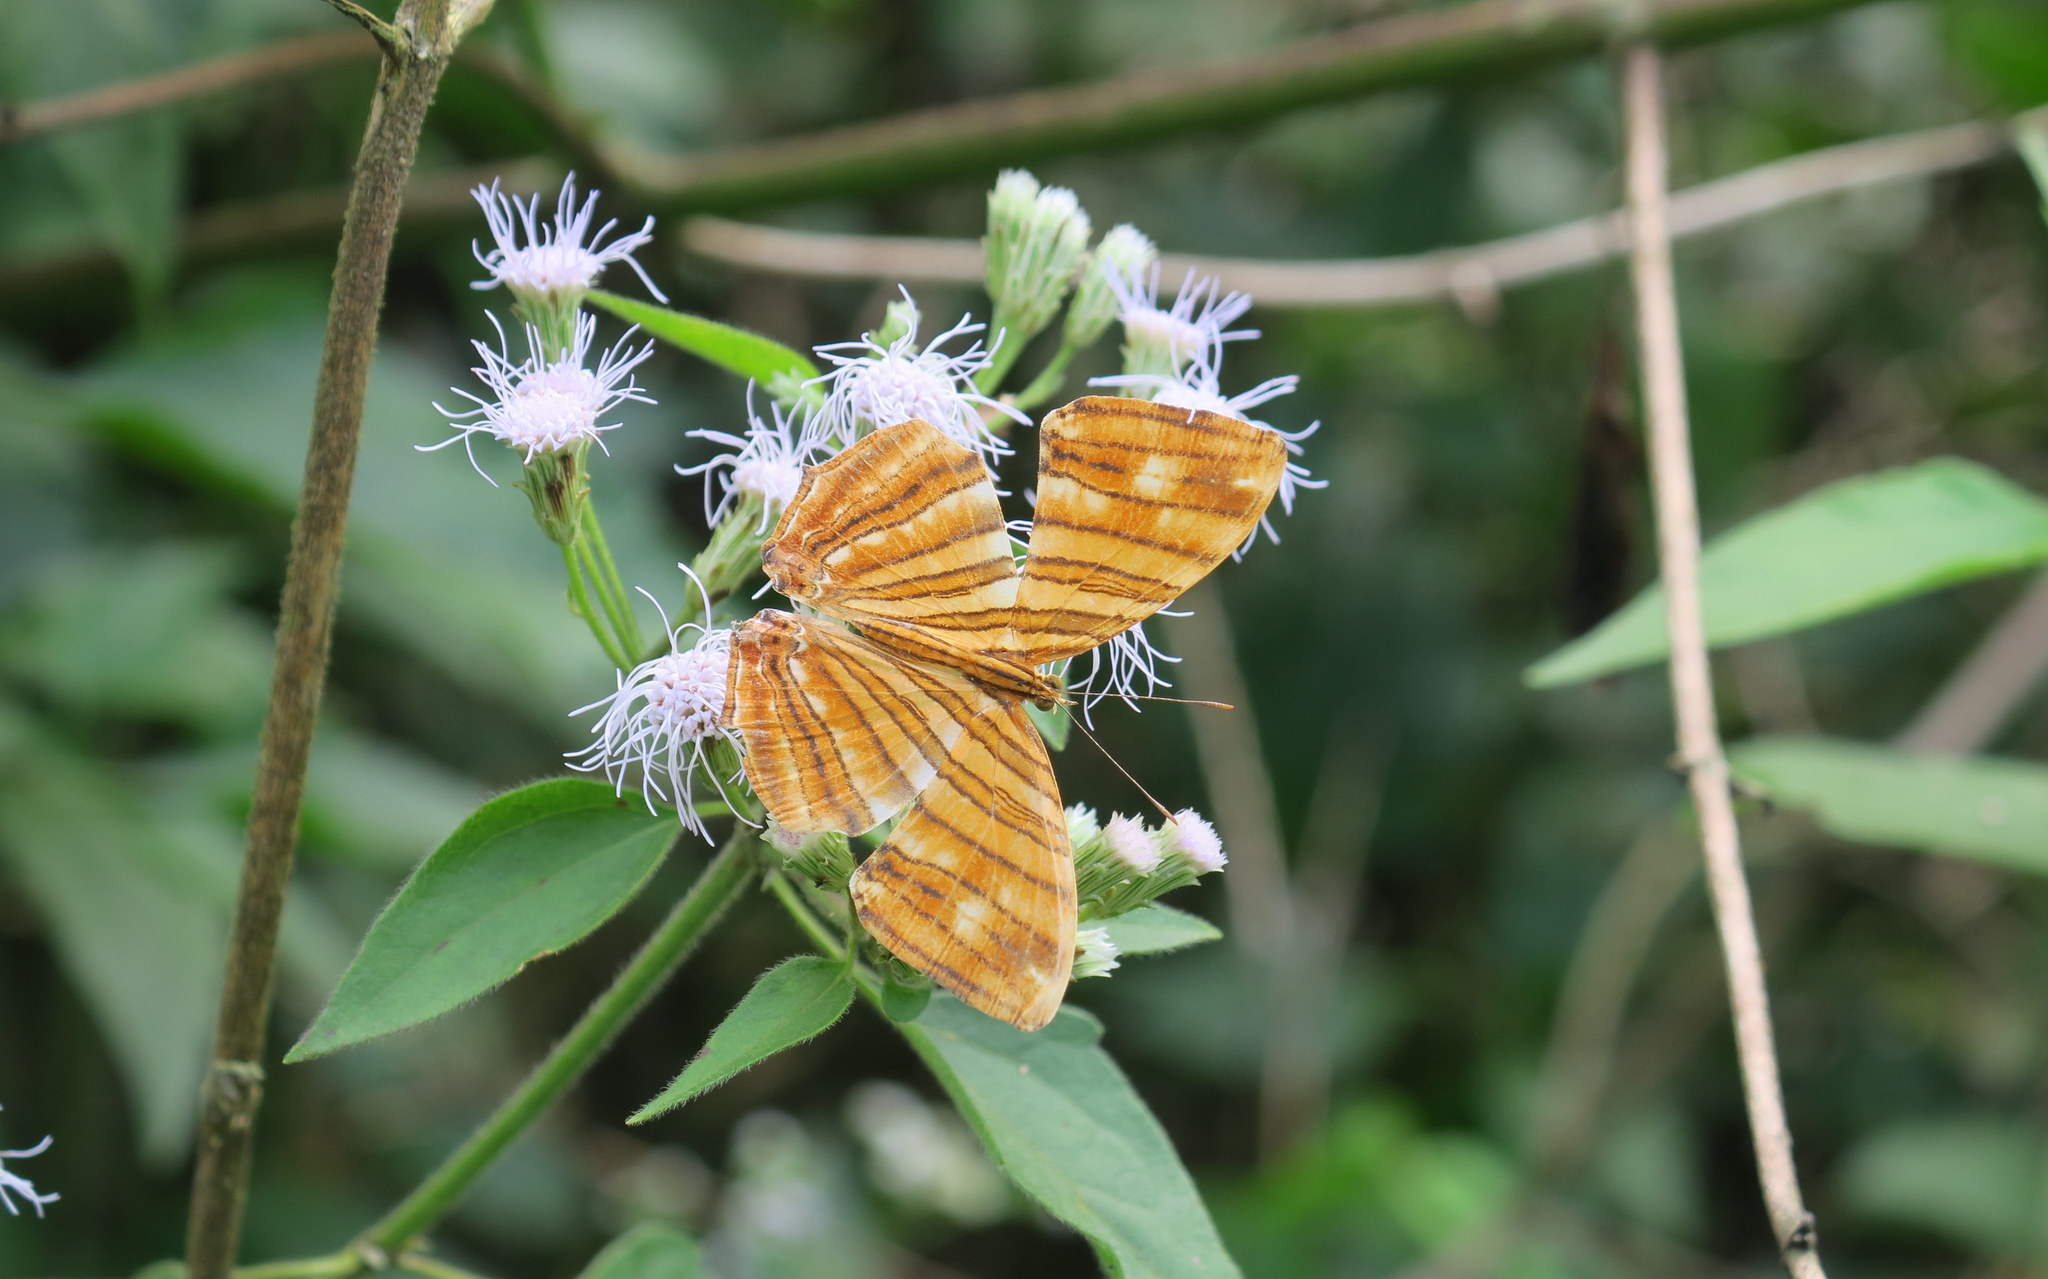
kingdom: Animalia
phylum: Arthropoda
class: Insecta
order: Lepidoptera
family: Nymphalidae
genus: Chersonesia
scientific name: Chersonesia risa
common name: Common maplet
